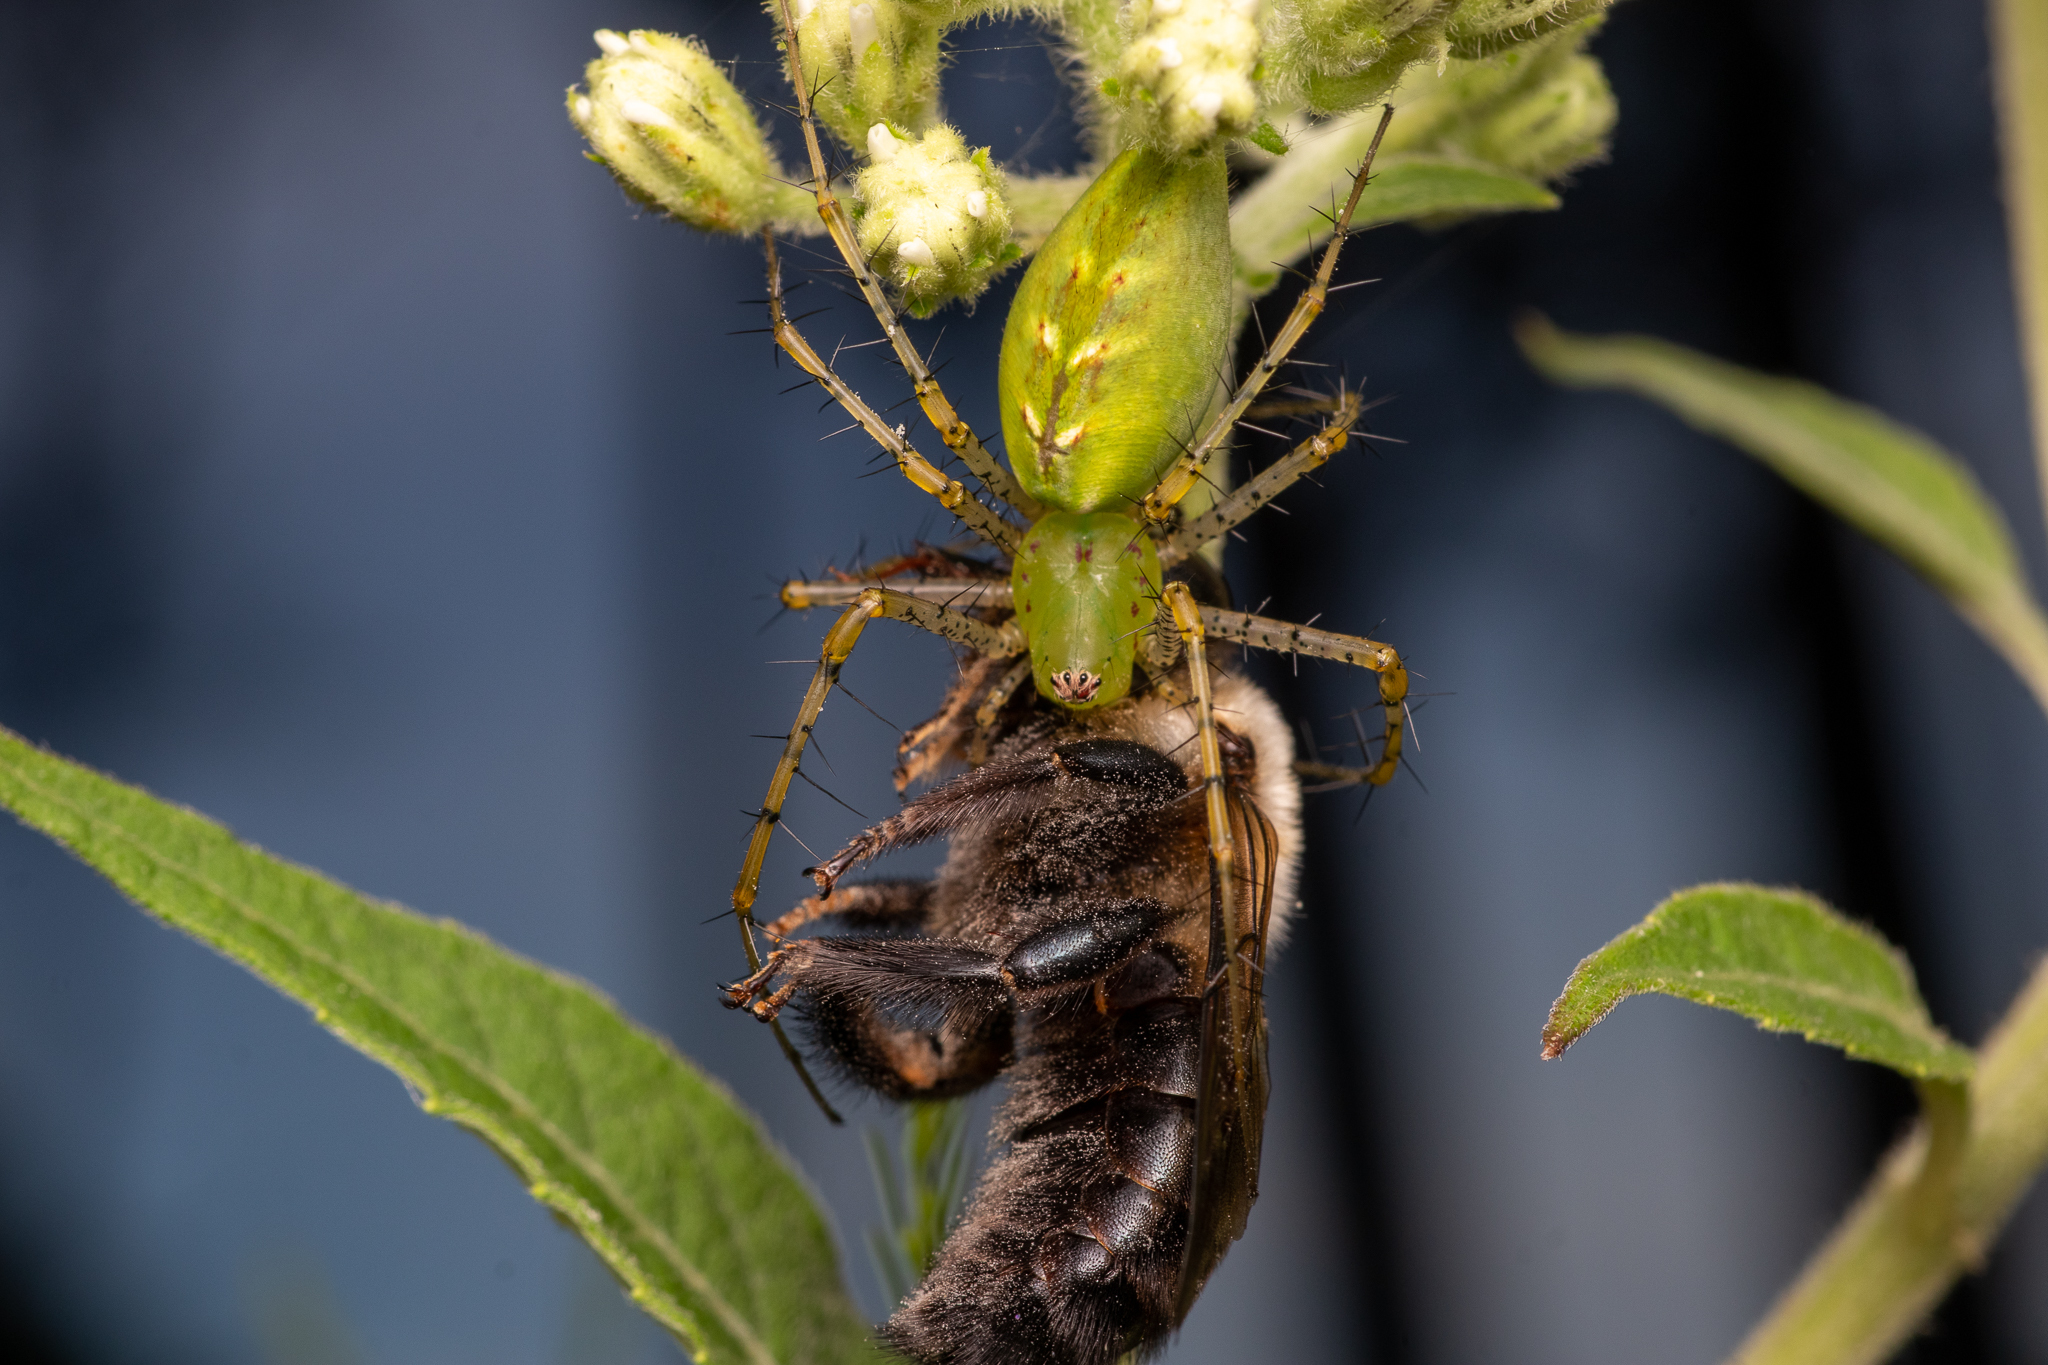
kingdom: Animalia
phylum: Arthropoda
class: Arachnida
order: Araneae
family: Oxyopidae
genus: Peucetia
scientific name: Peucetia viridans
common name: Lynx spiders
